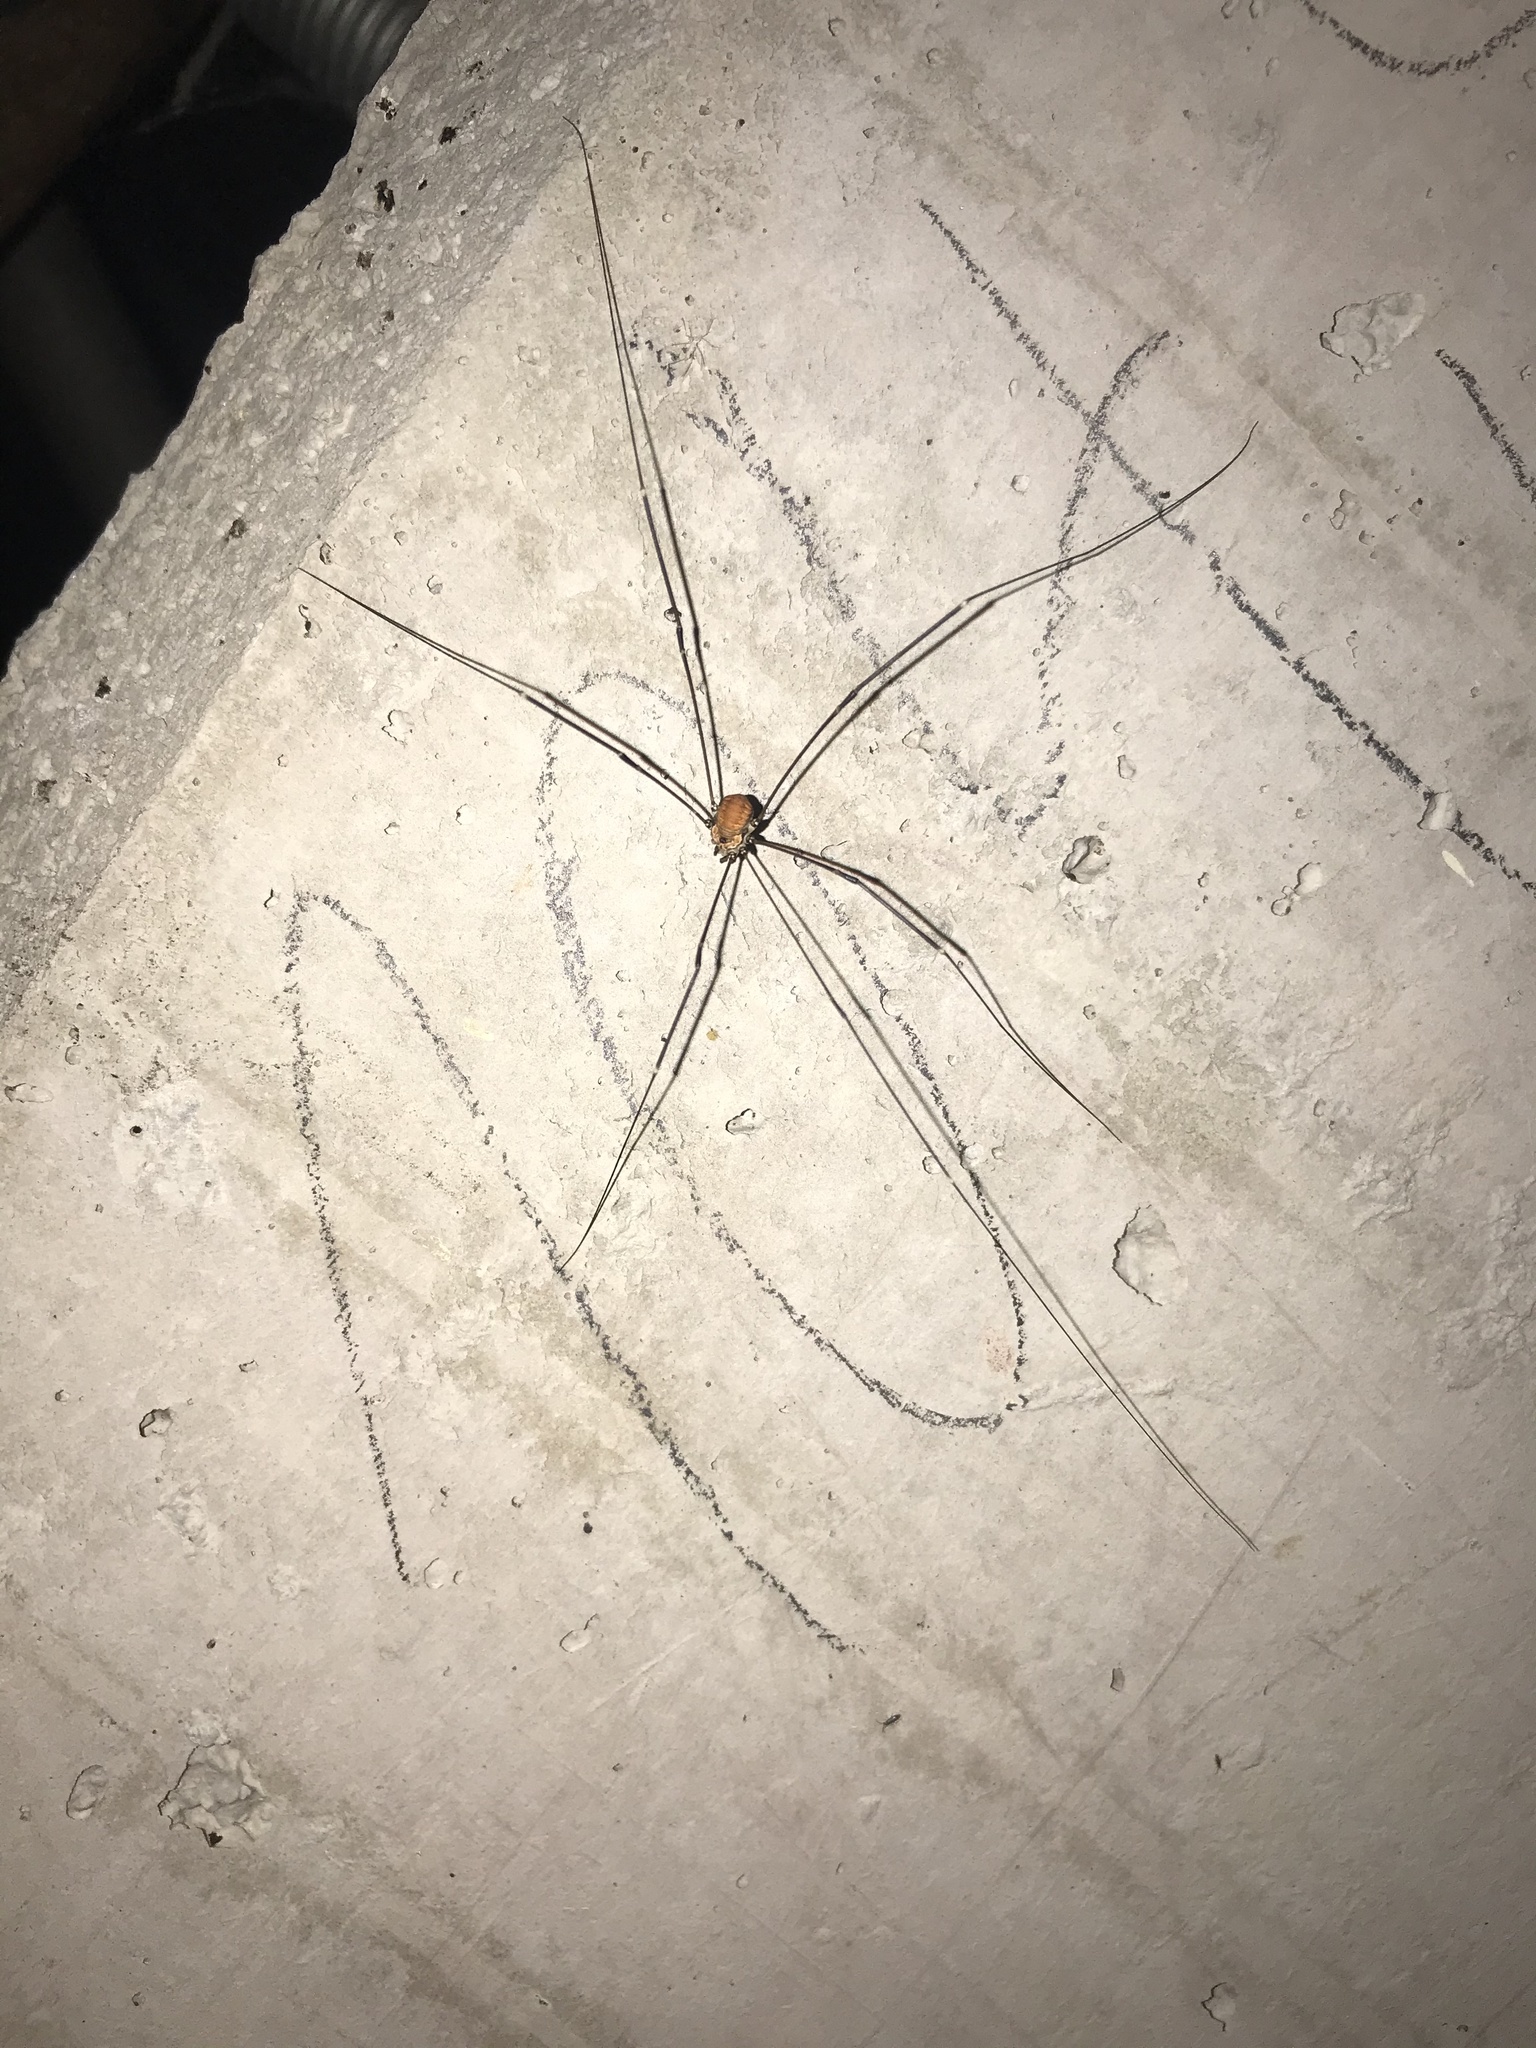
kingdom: Animalia
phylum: Arthropoda
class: Arachnida
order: Opiliones
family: Sclerosomatidae
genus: Leiobunum
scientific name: Leiobunum limbatum
